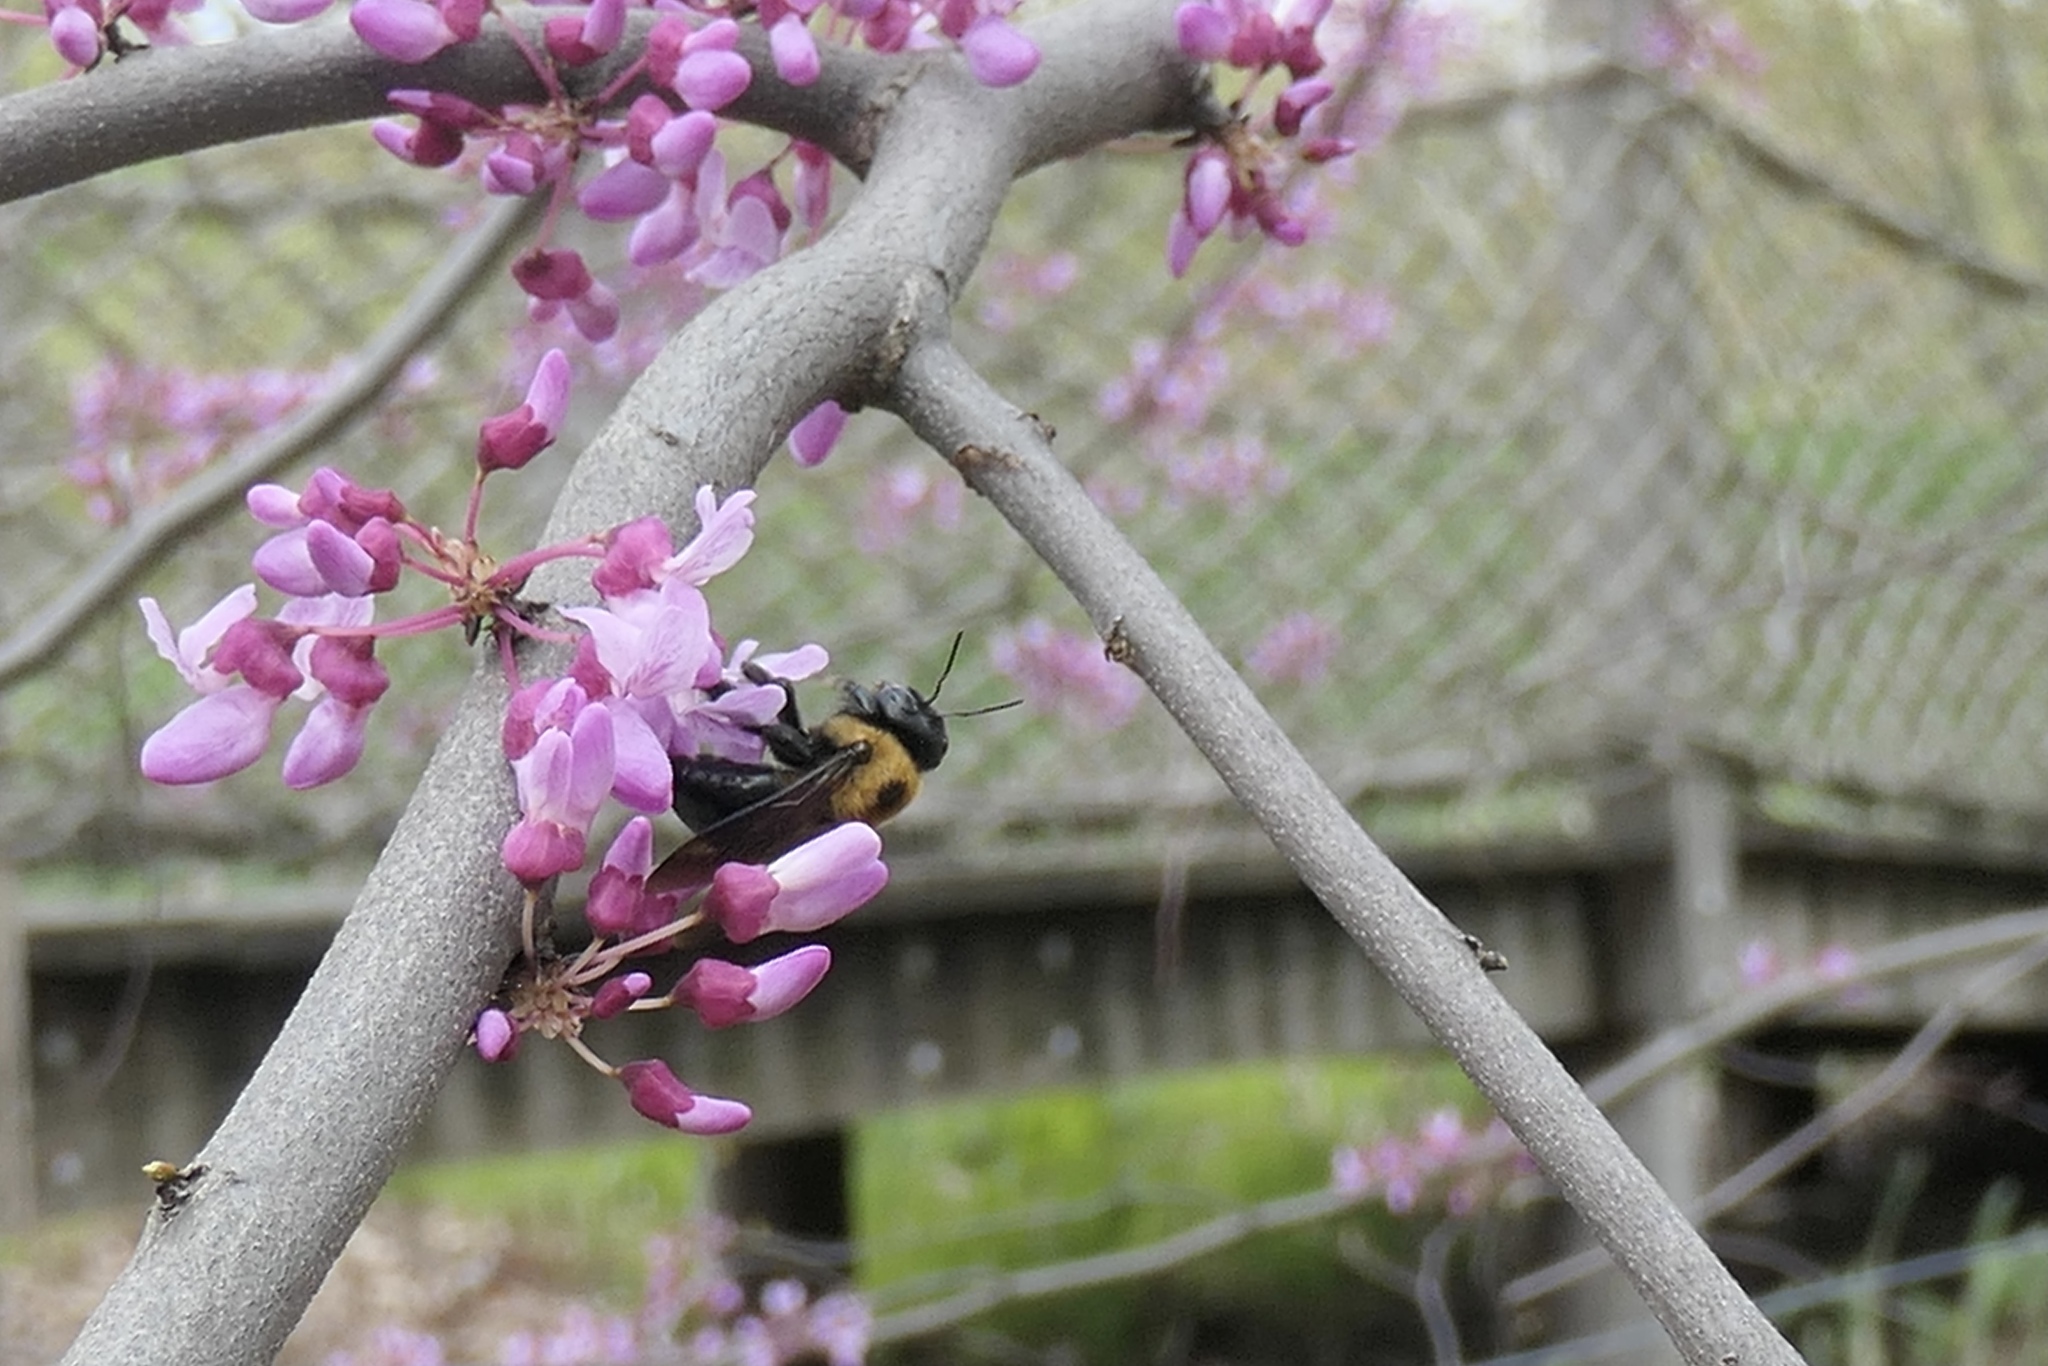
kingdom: Animalia
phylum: Arthropoda
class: Insecta
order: Hymenoptera
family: Apidae
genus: Xylocopa
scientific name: Xylocopa virginica
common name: Carpenter bee
